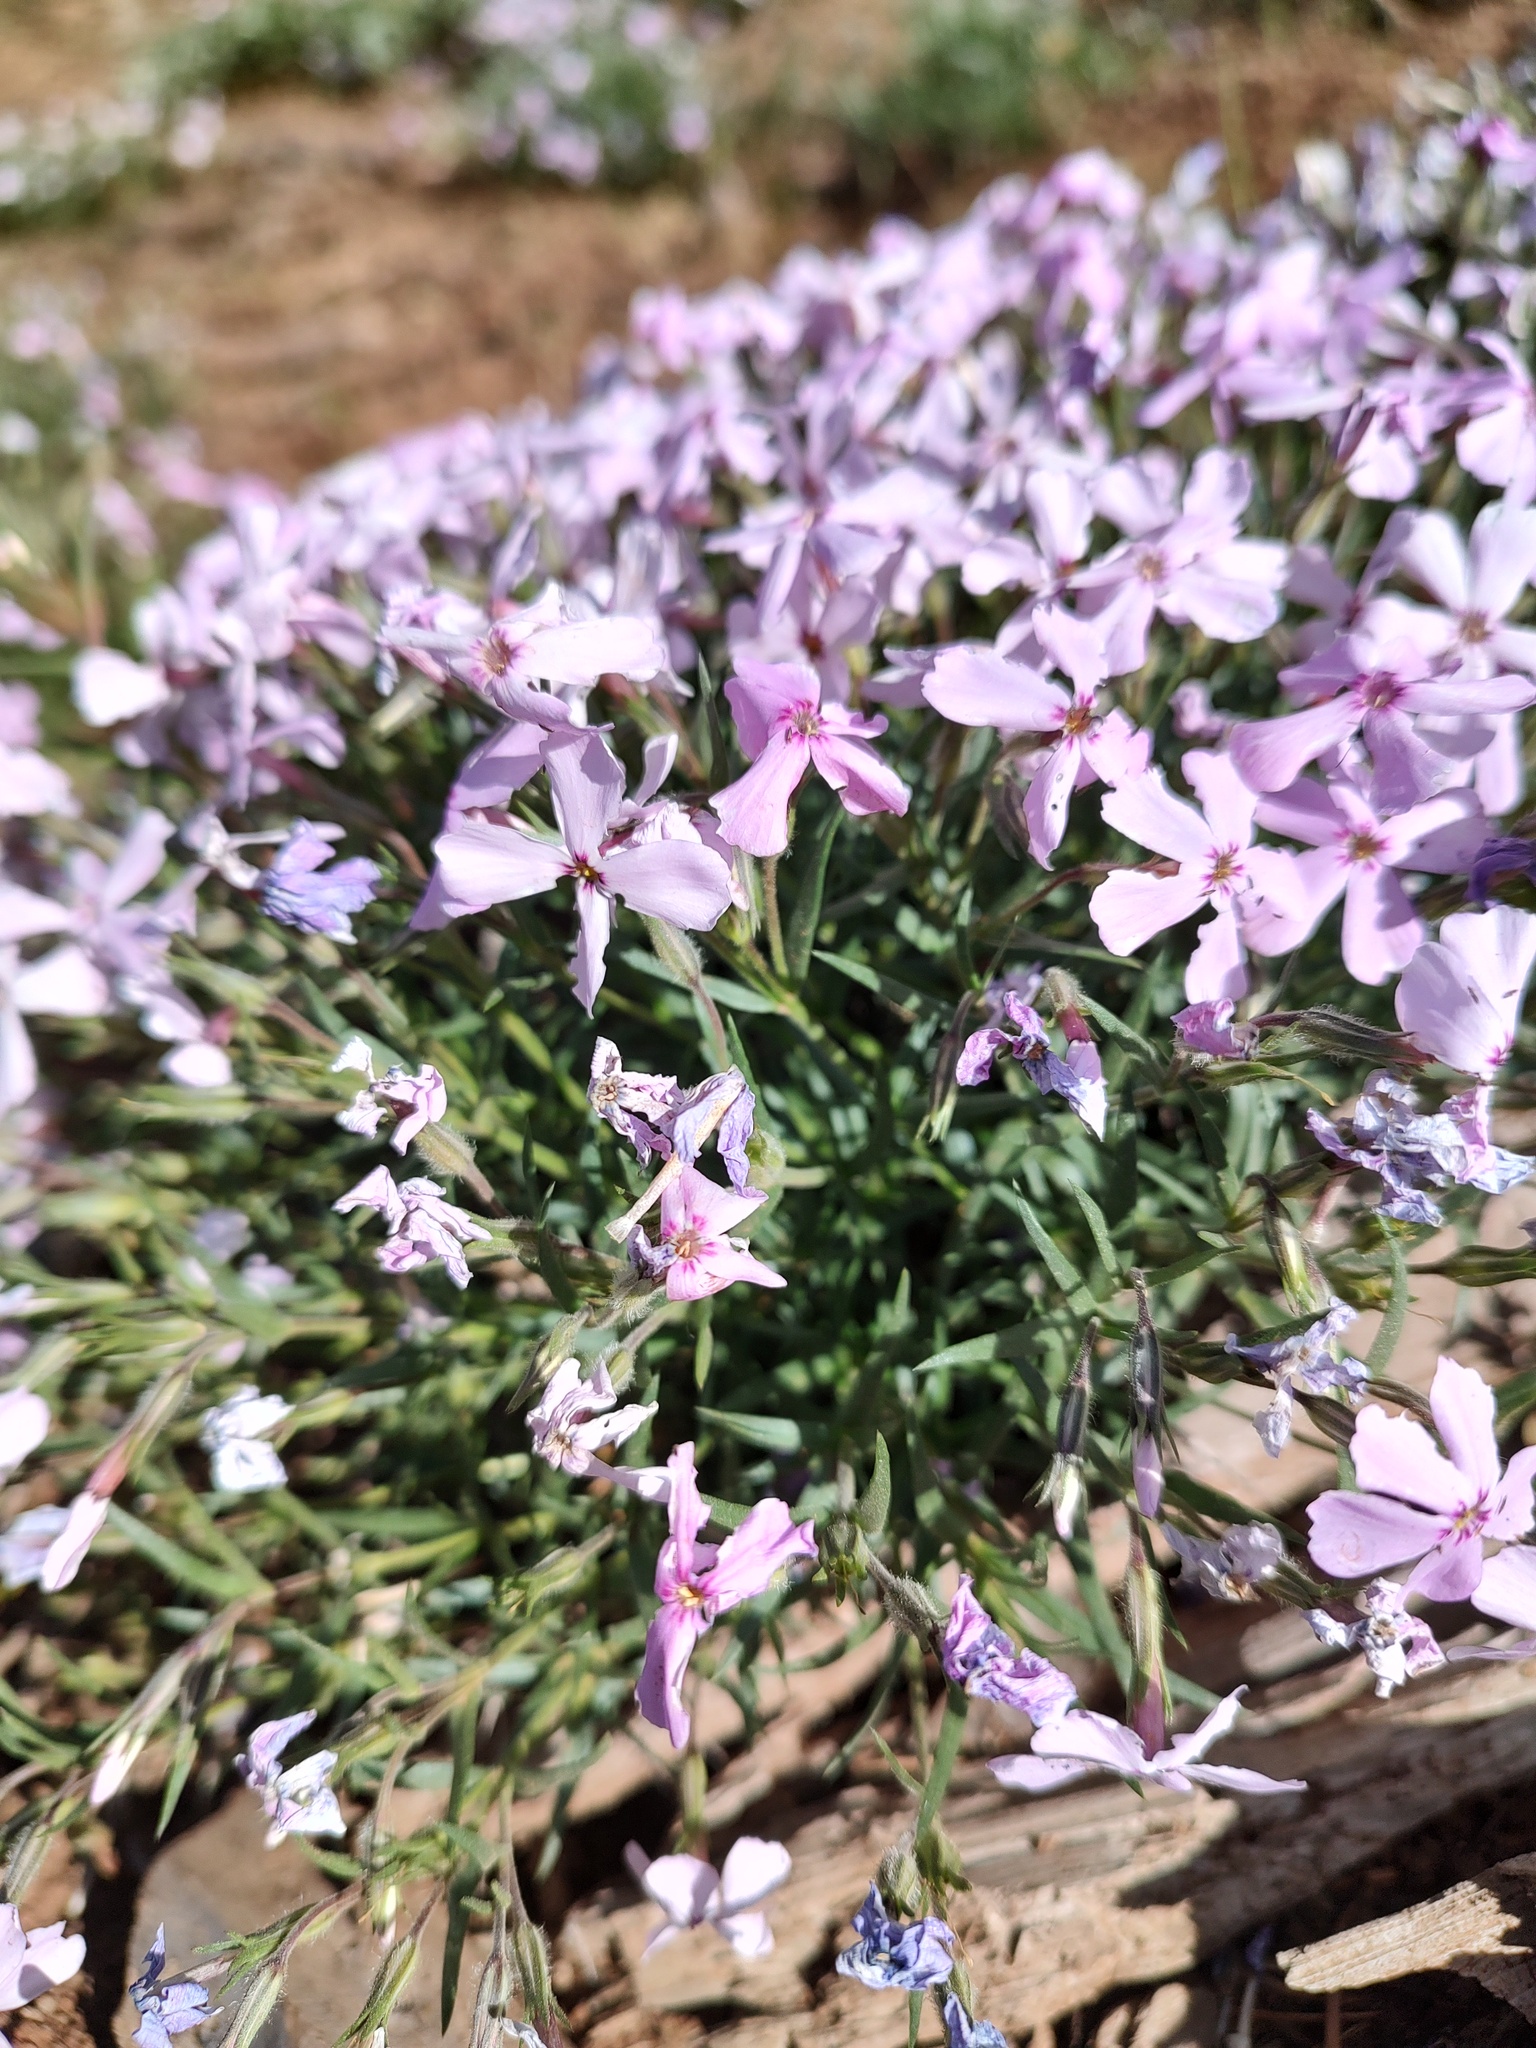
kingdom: Plantae
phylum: Tracheophyta
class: Magnoliopsida
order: Ericales
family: Polemoniaceae
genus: Phlox
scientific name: Phlox viscida
